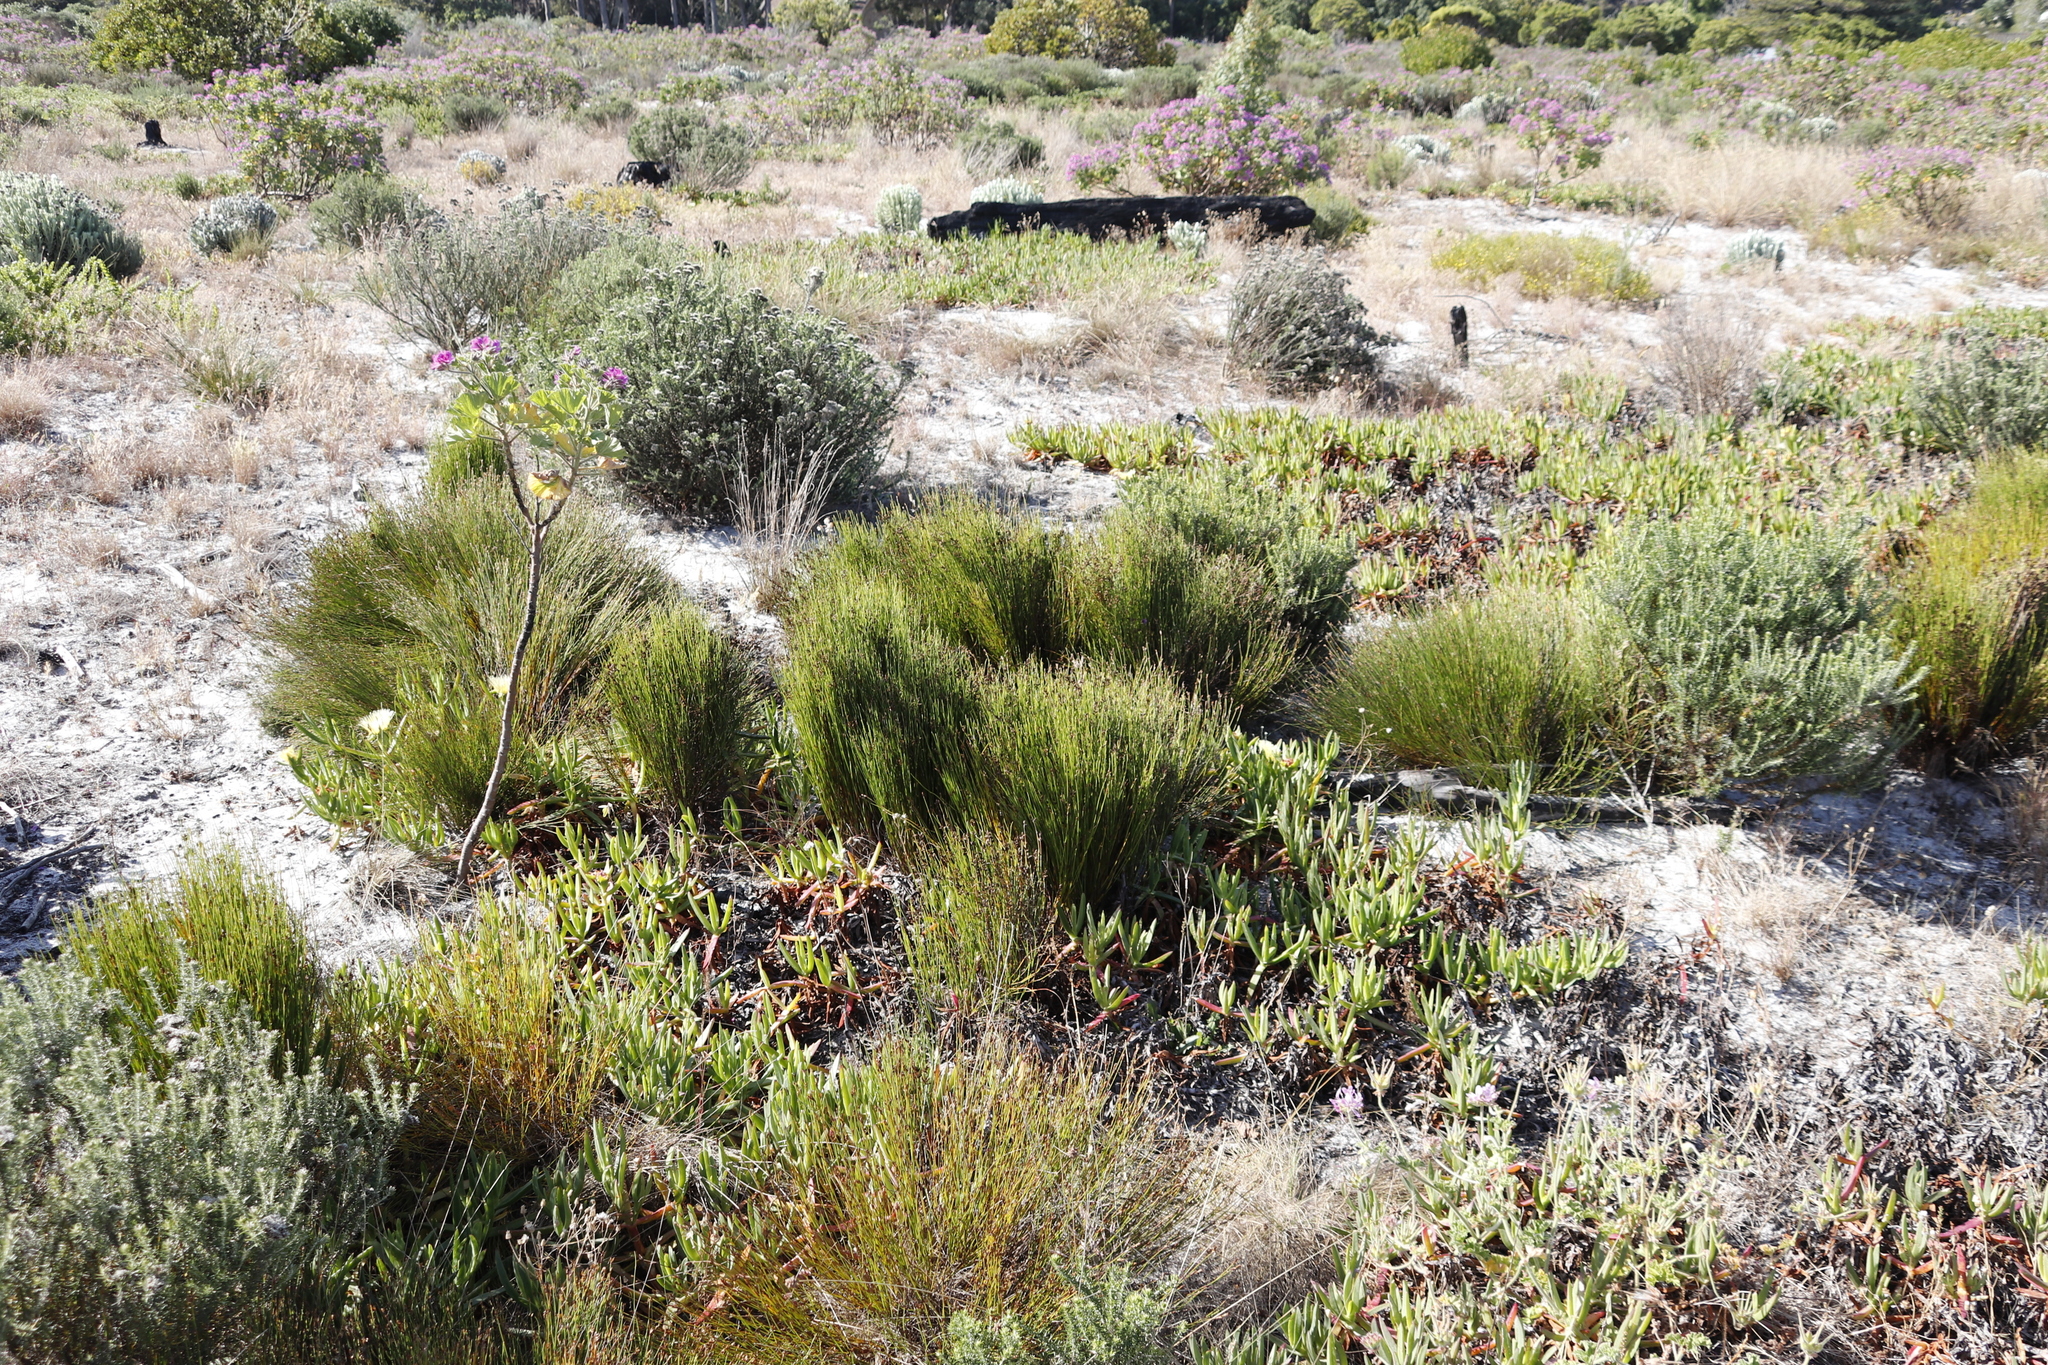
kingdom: Plantae
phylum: Tracheophyta
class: Liliopsida
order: Poales
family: Restionaceae
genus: Mastersiella
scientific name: Mastersiella digitata
